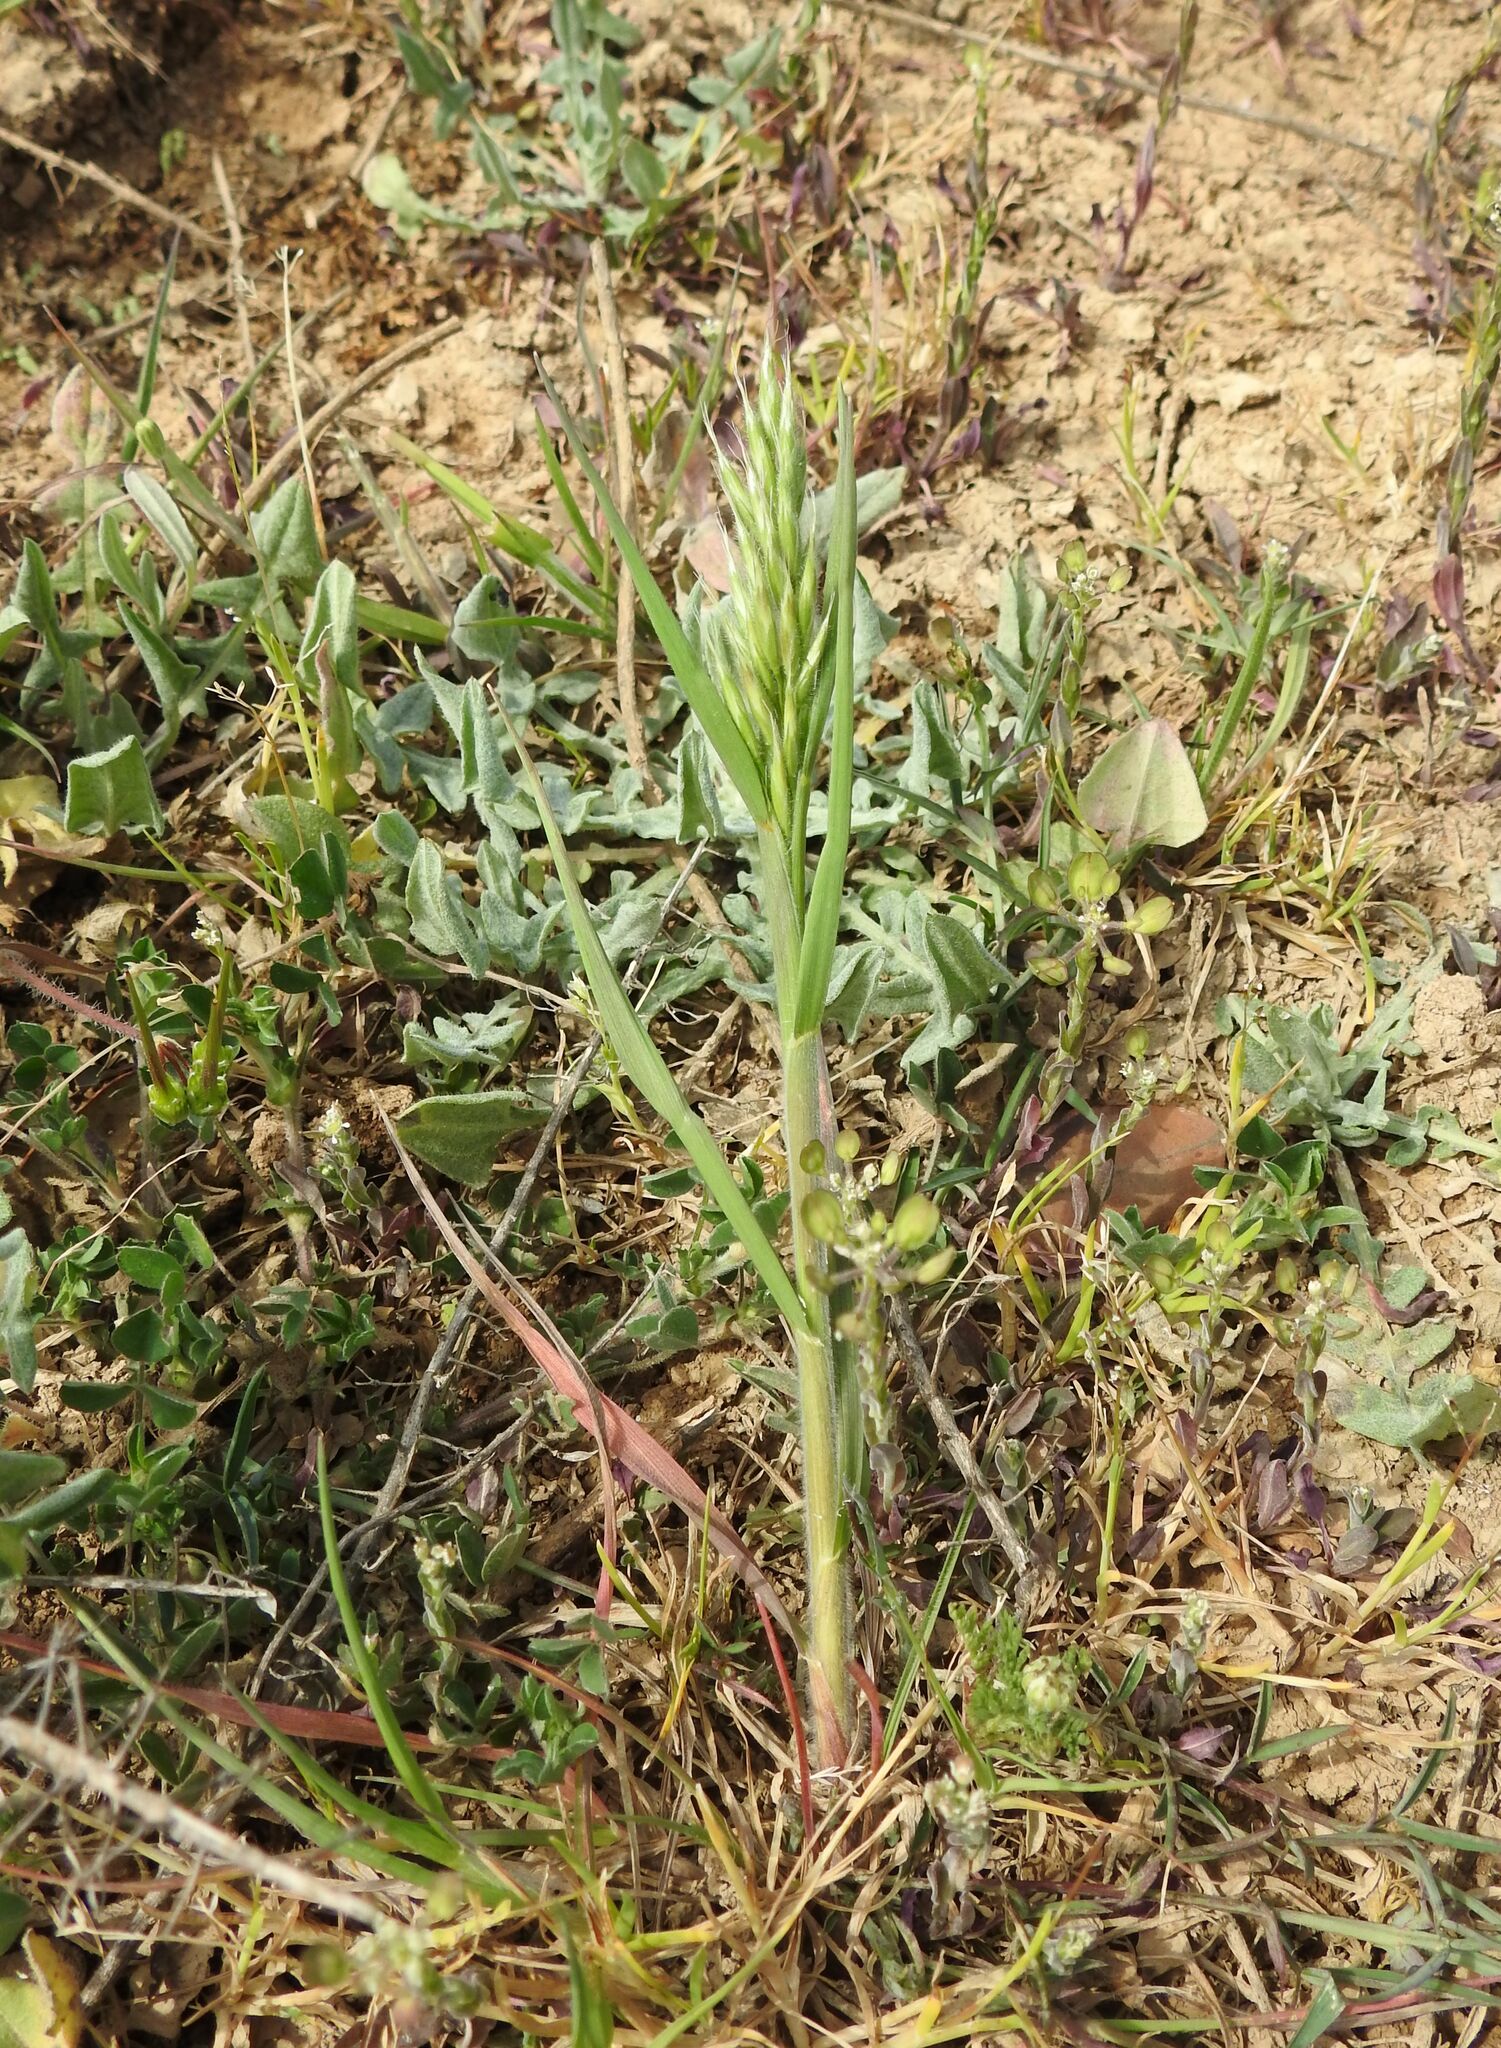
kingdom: Plantae
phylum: Tracheophyta
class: Liliopsida
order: Poales
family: Poaceae
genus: Bromus
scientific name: Bromus hordeaceus
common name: Soft brome
